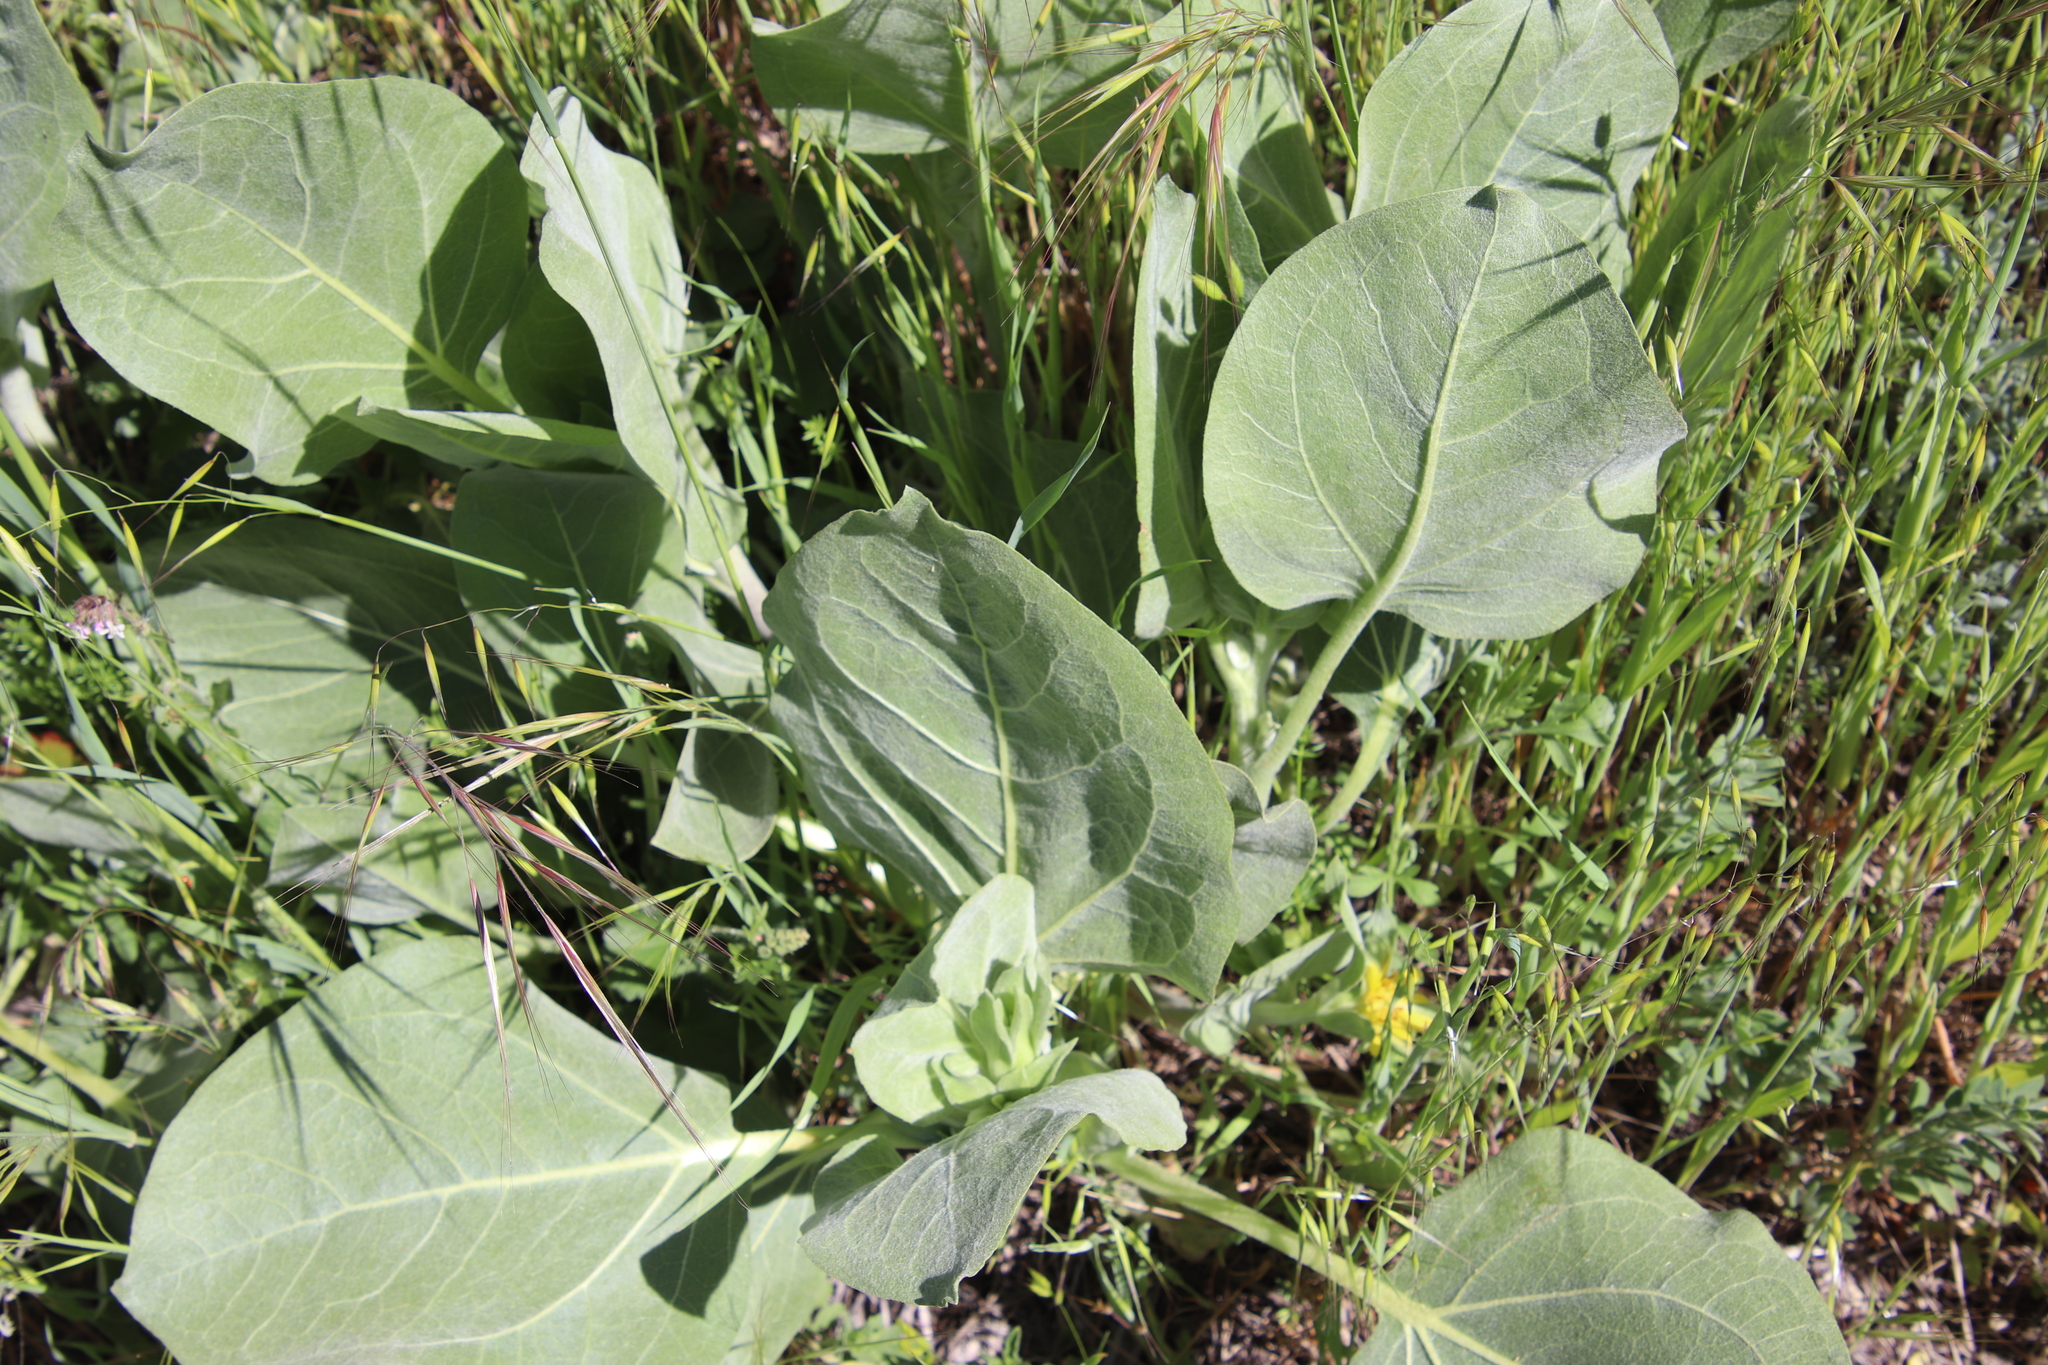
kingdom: Plantae
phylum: Tracheophyta
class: Magnoliopsida
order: Asterales
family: Asteraceae
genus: Agnorhiza
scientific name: Agnorhiza ovata
